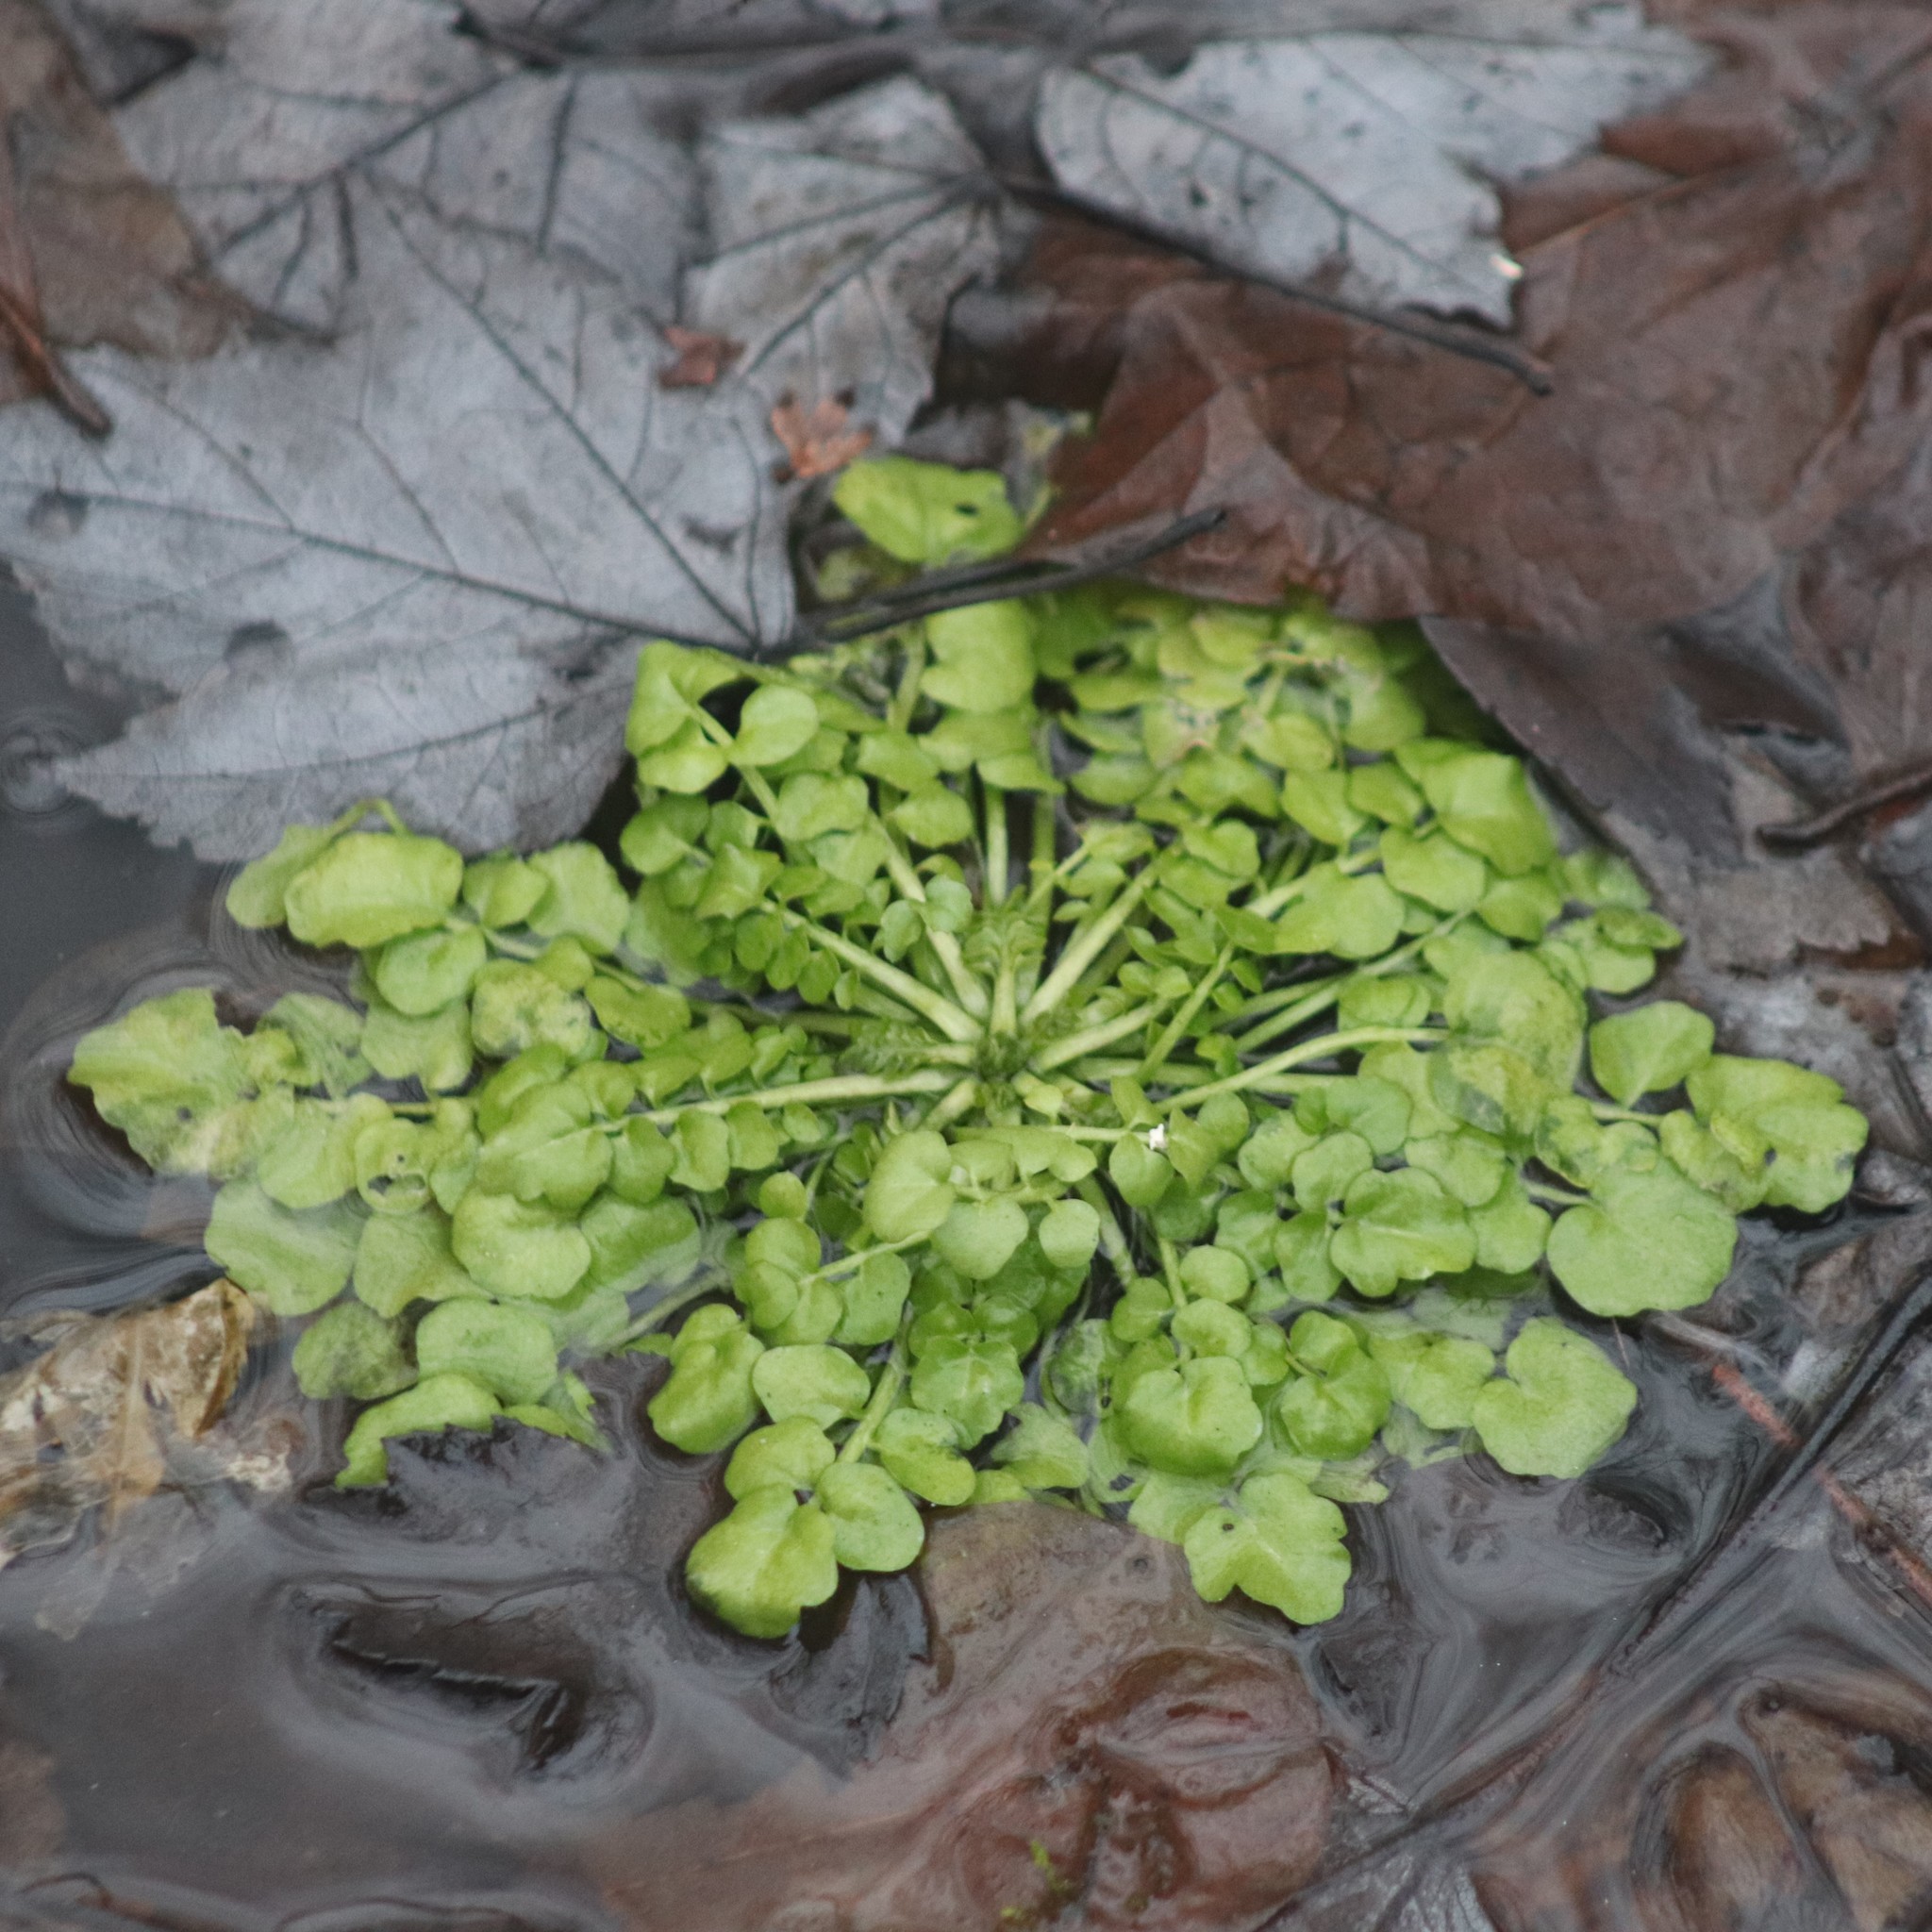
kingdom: Plantae
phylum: Tracheophyta
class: Magnoliopsida
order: Brassicales
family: Brassicaceae
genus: Cardamine
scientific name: Cardamine hirsuta
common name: Hairy bittercress
